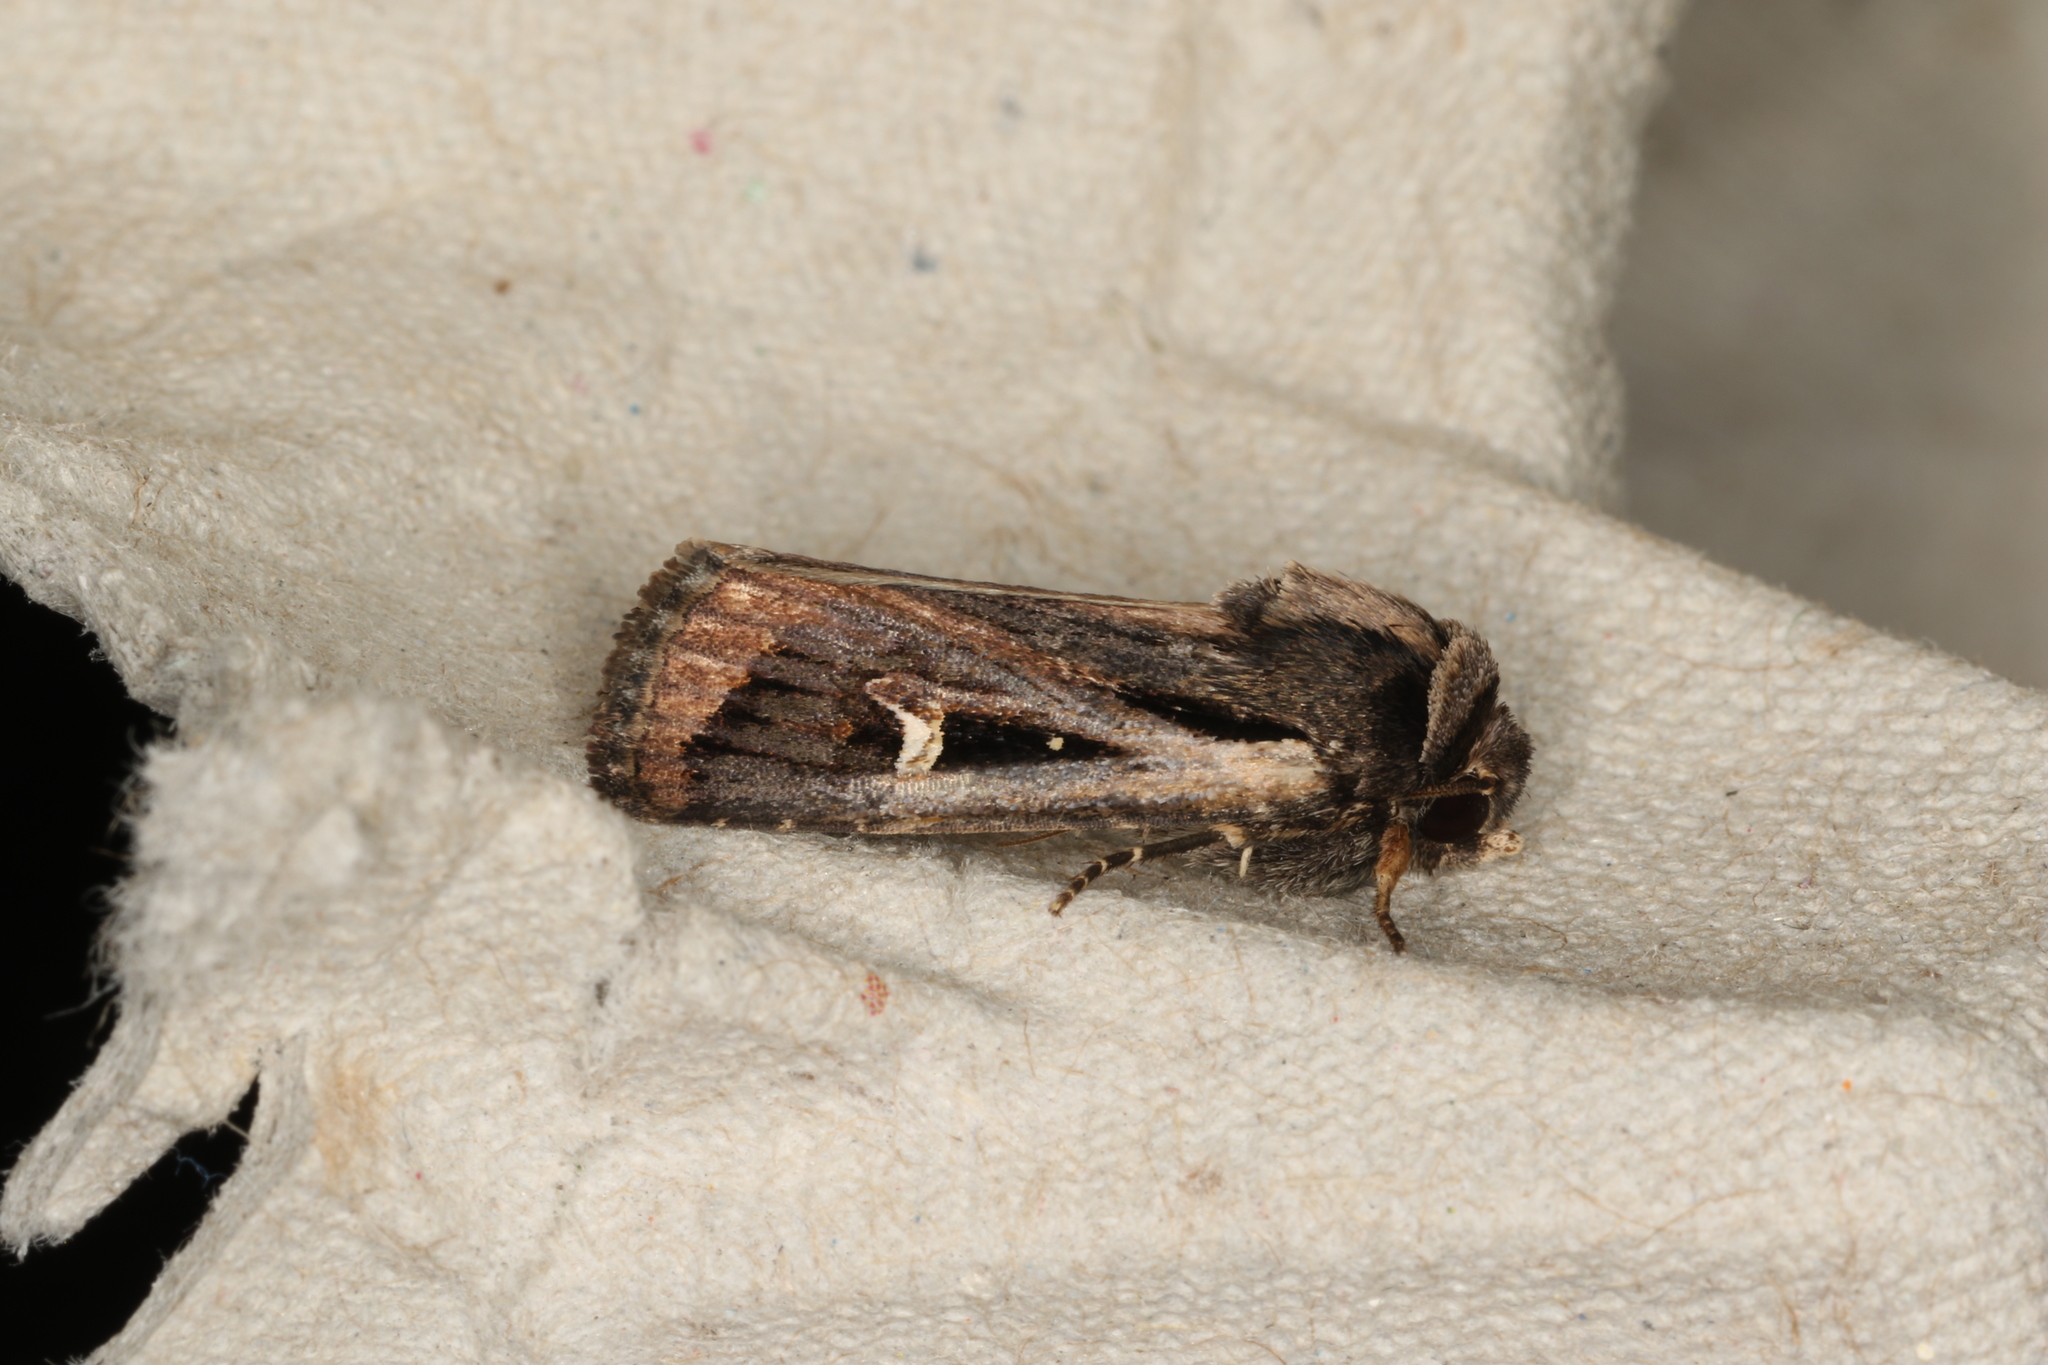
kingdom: Animalia
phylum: Arthropoda
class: Insecta
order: Lepidoptera
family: Noctuidae
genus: Proteuxoa
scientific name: Proteuxoa epiplecta
